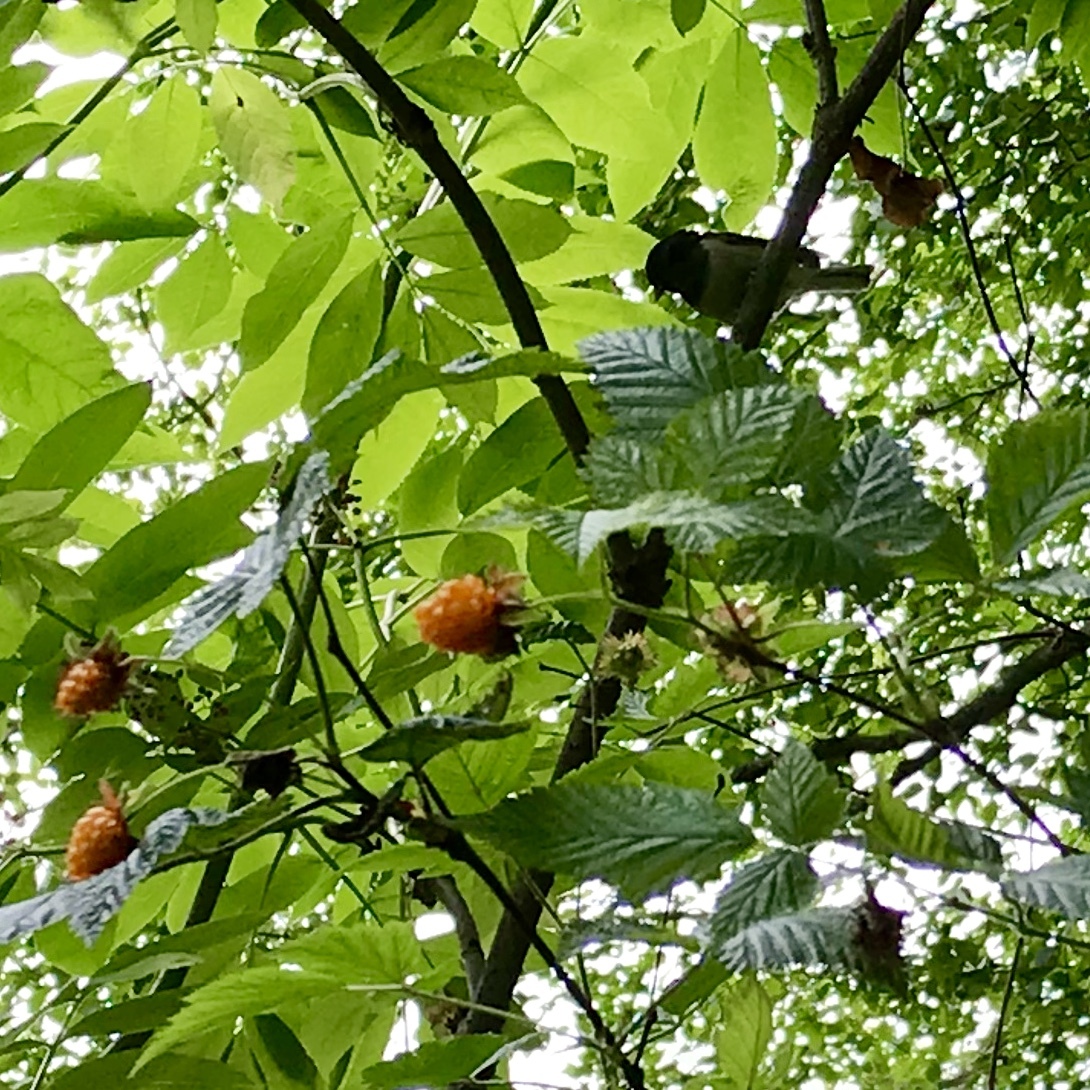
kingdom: Animalia
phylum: Chordata
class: Aves
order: Passeriformes
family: Passerellidae
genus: Junco
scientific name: Junco hyemalis
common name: Dark-eyed junco
